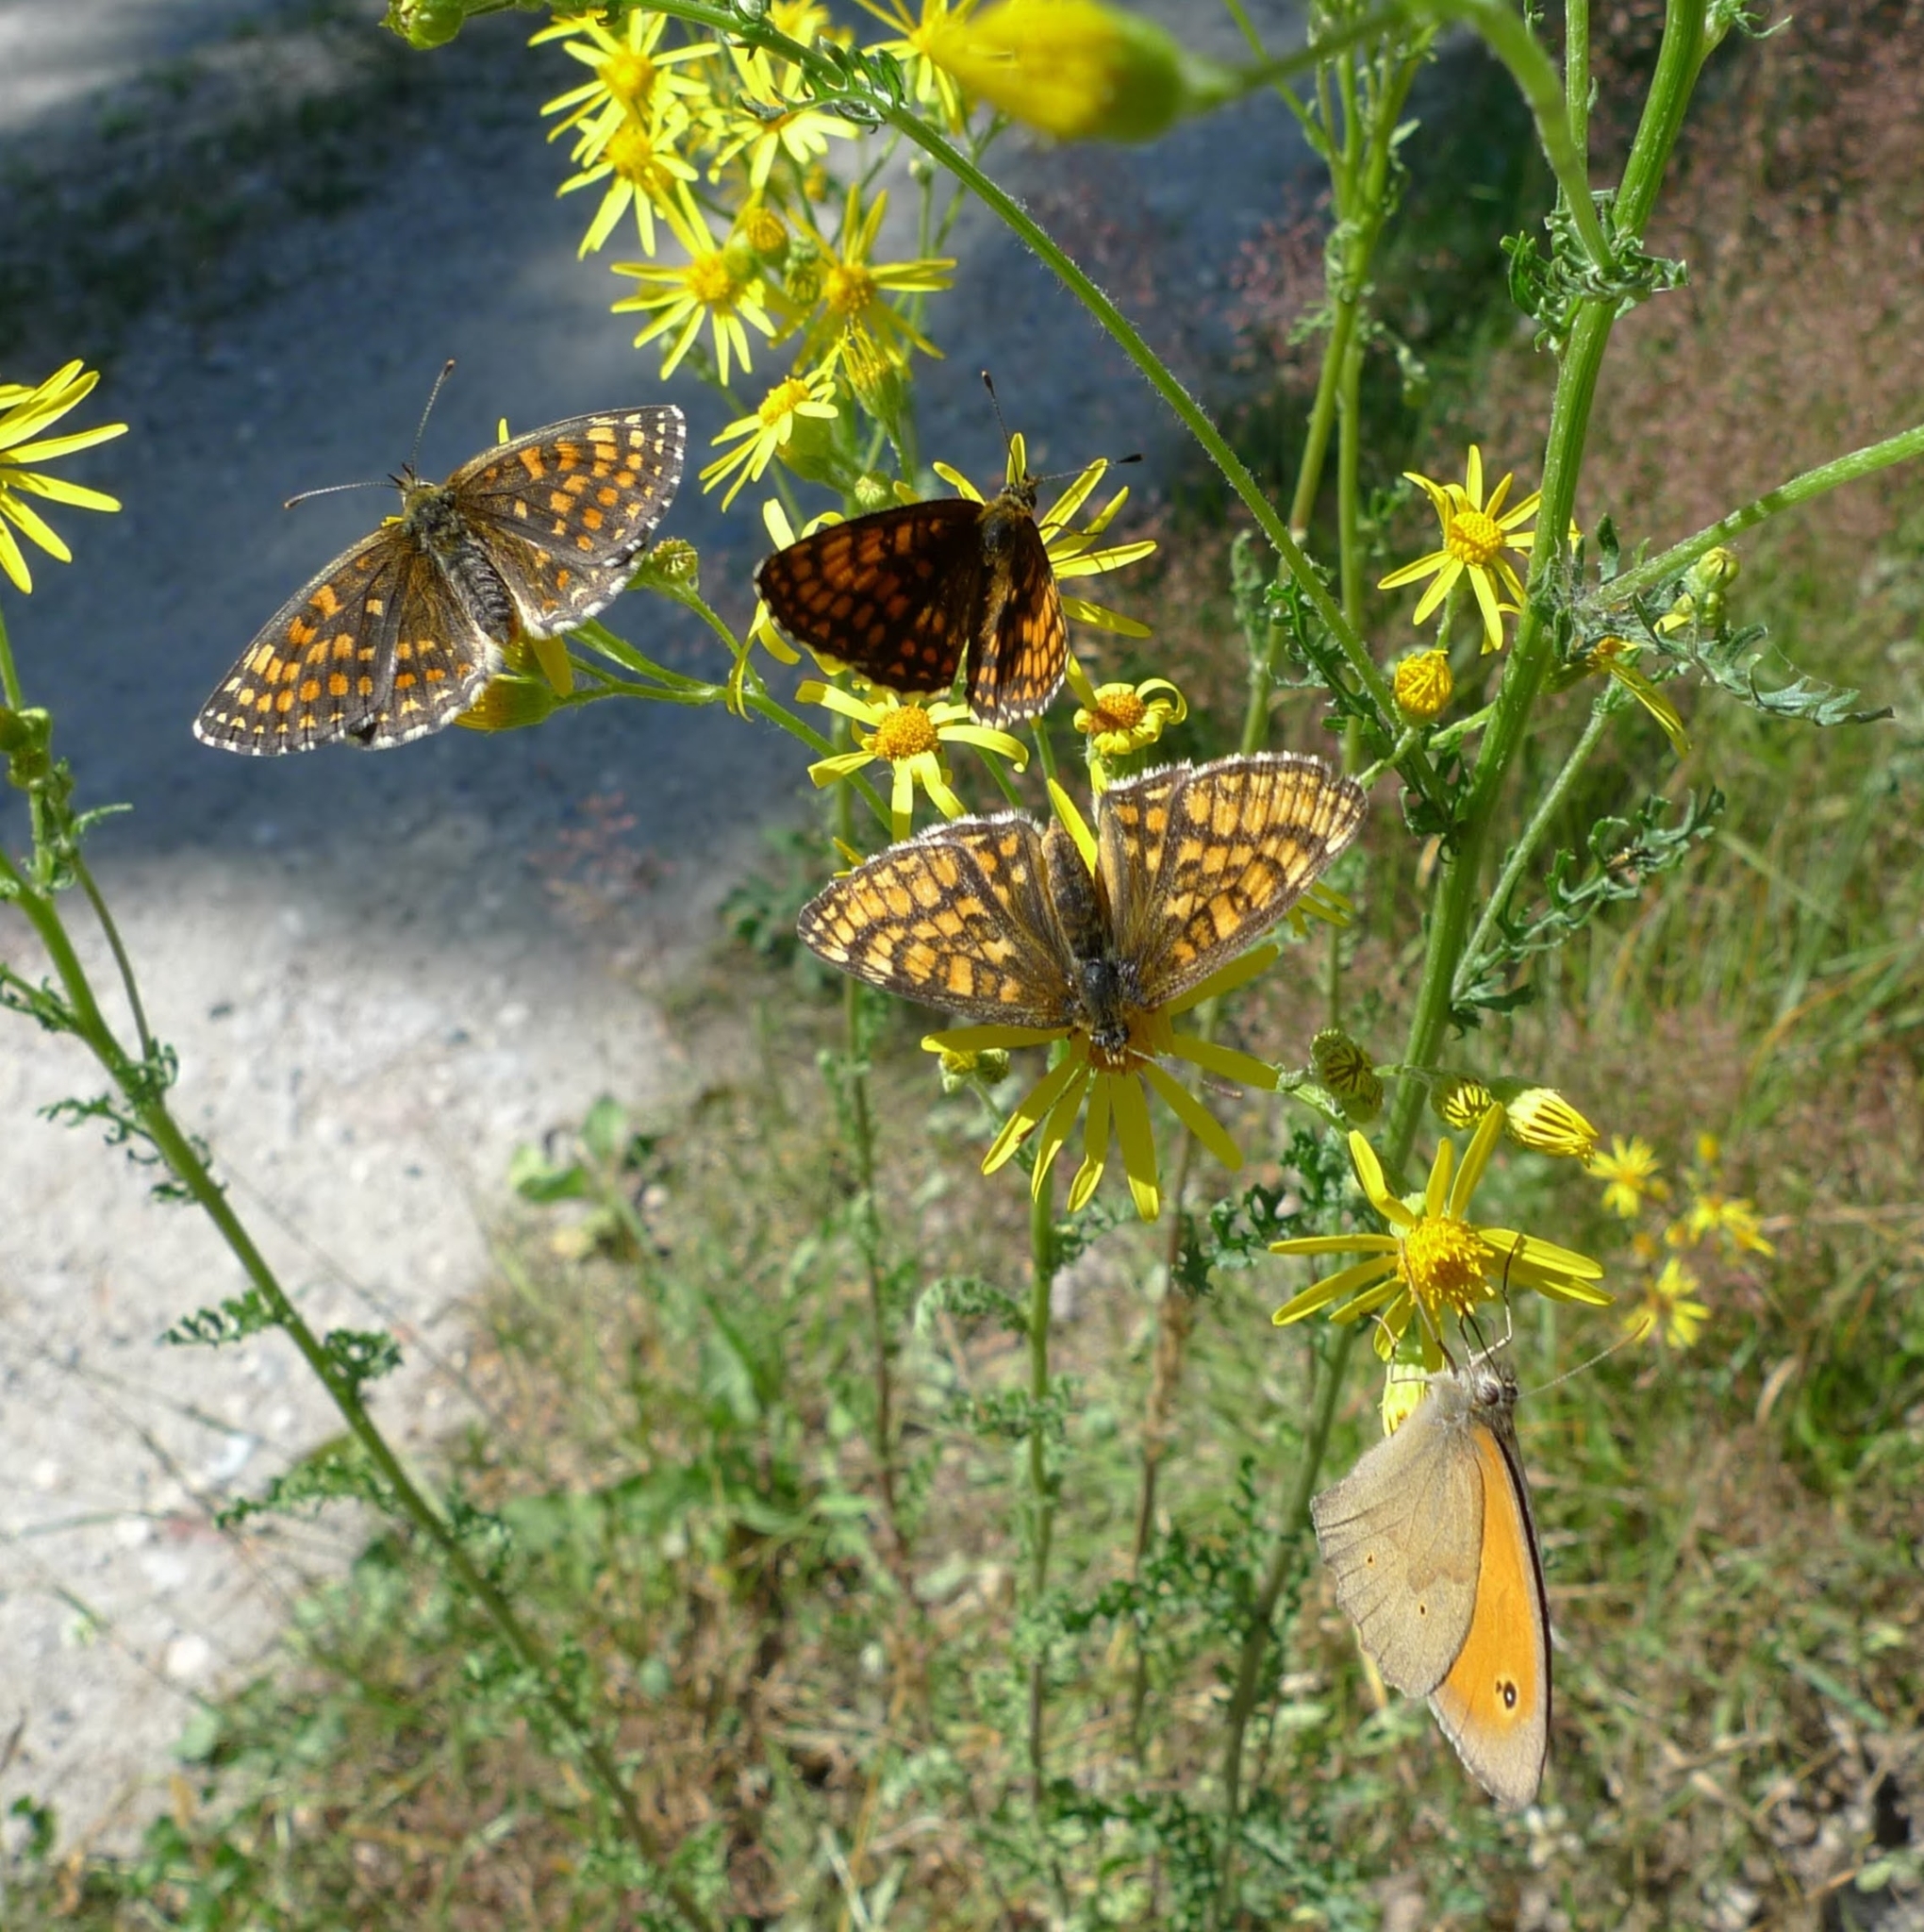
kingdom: Animalia
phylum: Arthropoda
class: Insecta
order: Lepidoptera
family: Nymphalidae
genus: Melitaea
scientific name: Melitaea athalia
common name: Heath fritillary
